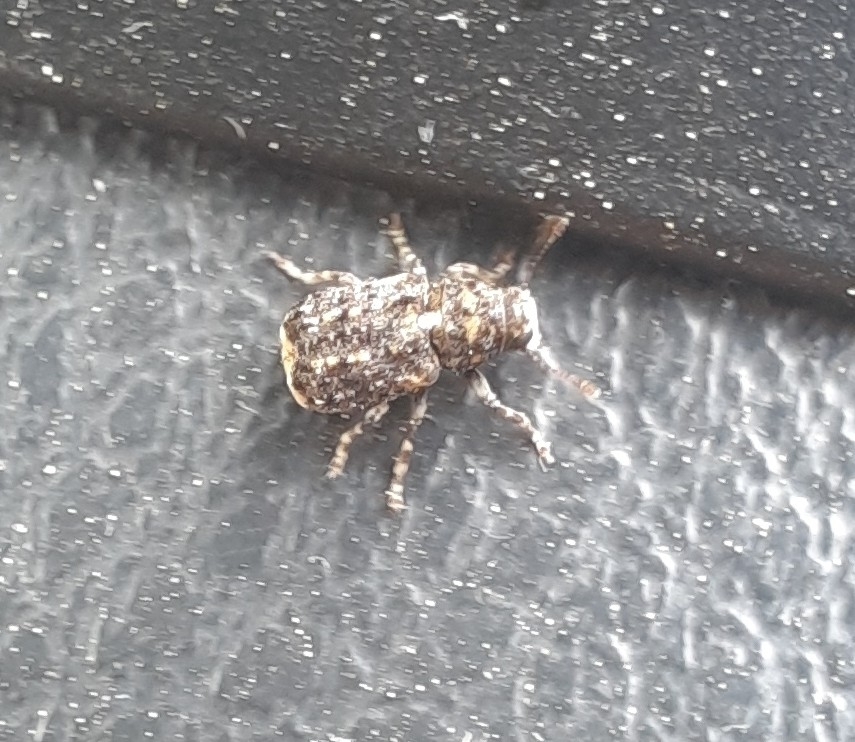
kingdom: Animalia
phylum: Arthropoda
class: Insecta
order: Coleoptera
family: Anthribidae
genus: Dissoleucas
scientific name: Dissoleucas niveirostris
